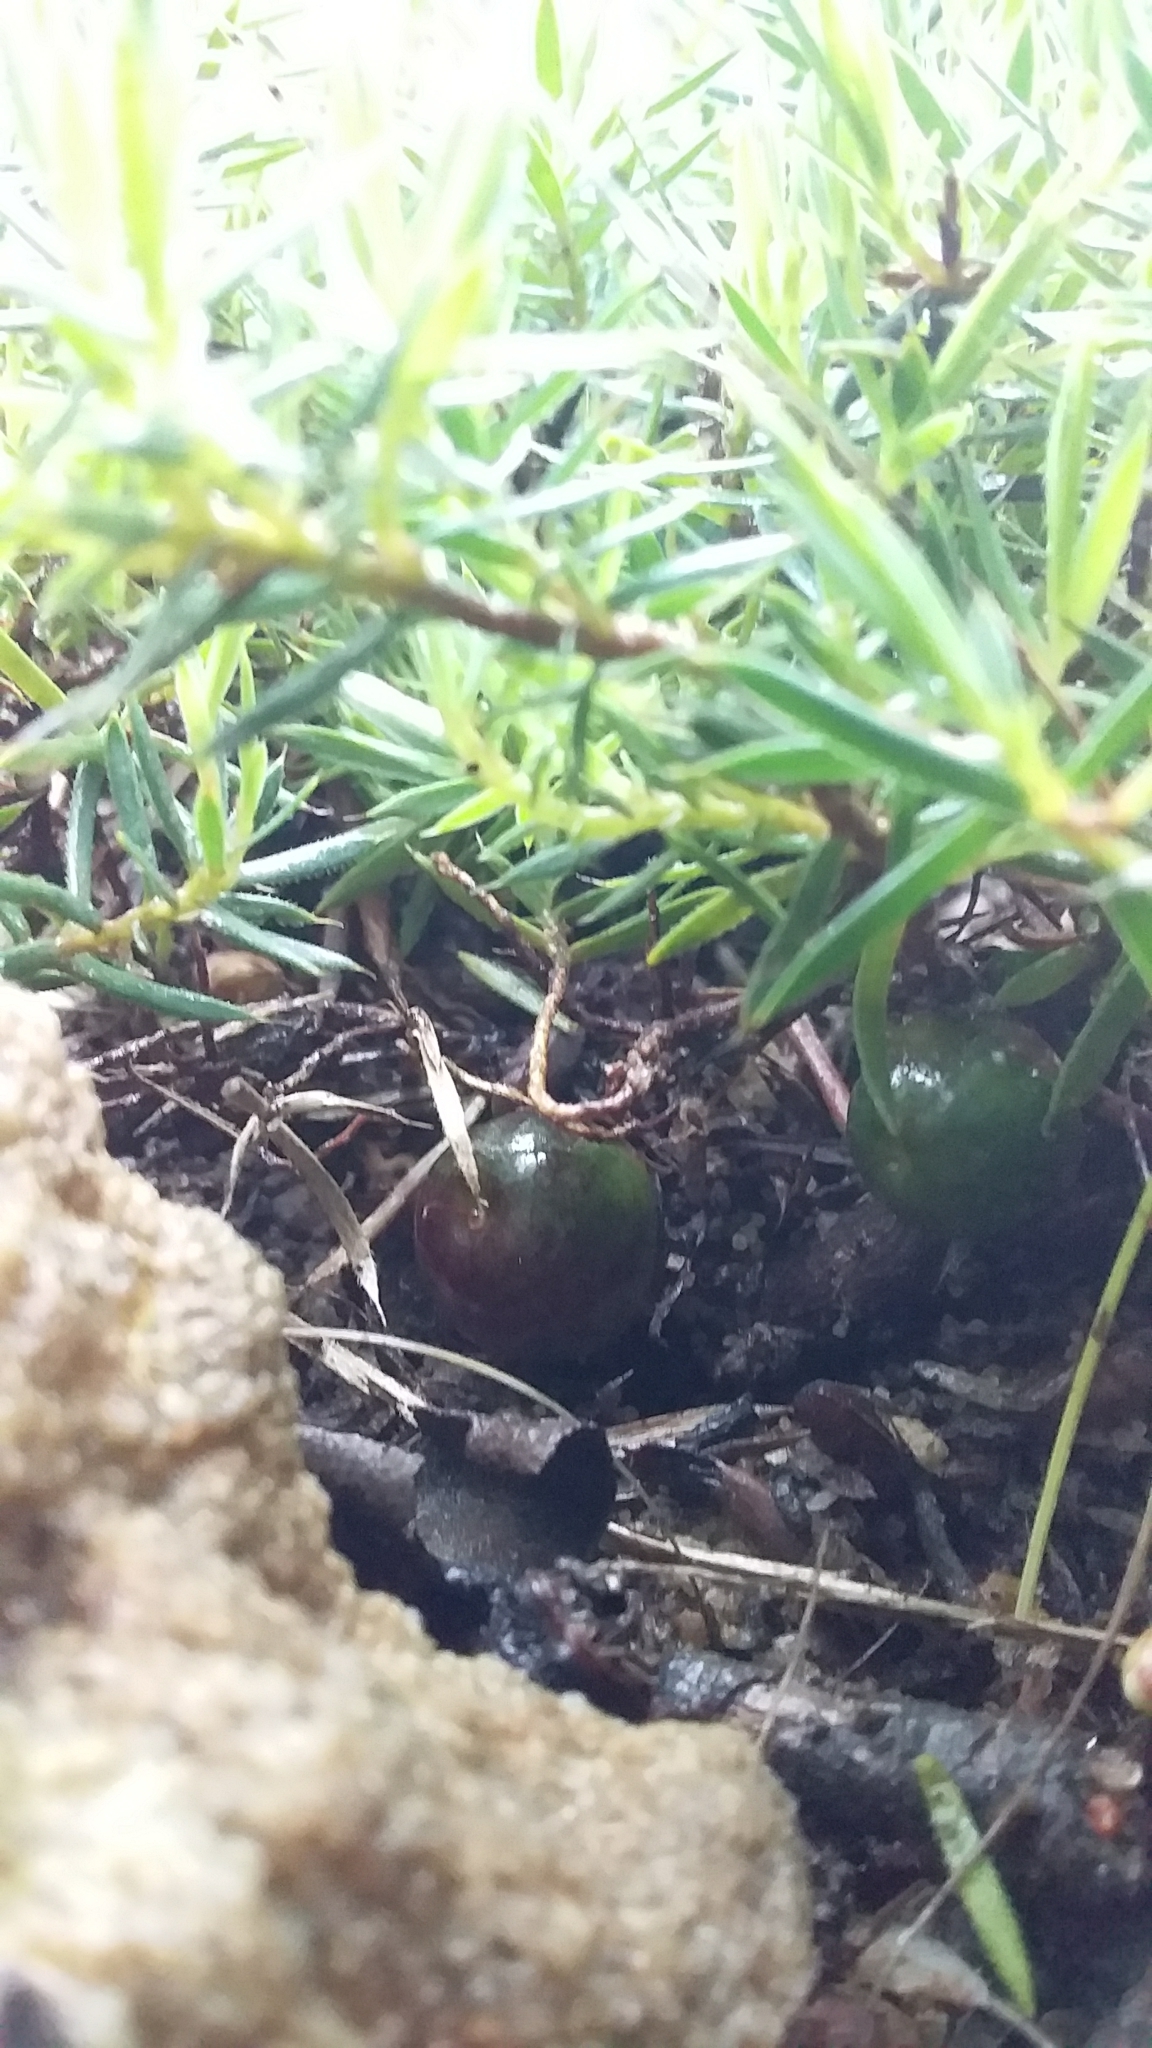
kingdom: Plantae
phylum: Tracheophyta
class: Magnoliopsida
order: Ericales
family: Ericaceae
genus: Styphelia
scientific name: Styphelia humifusa
